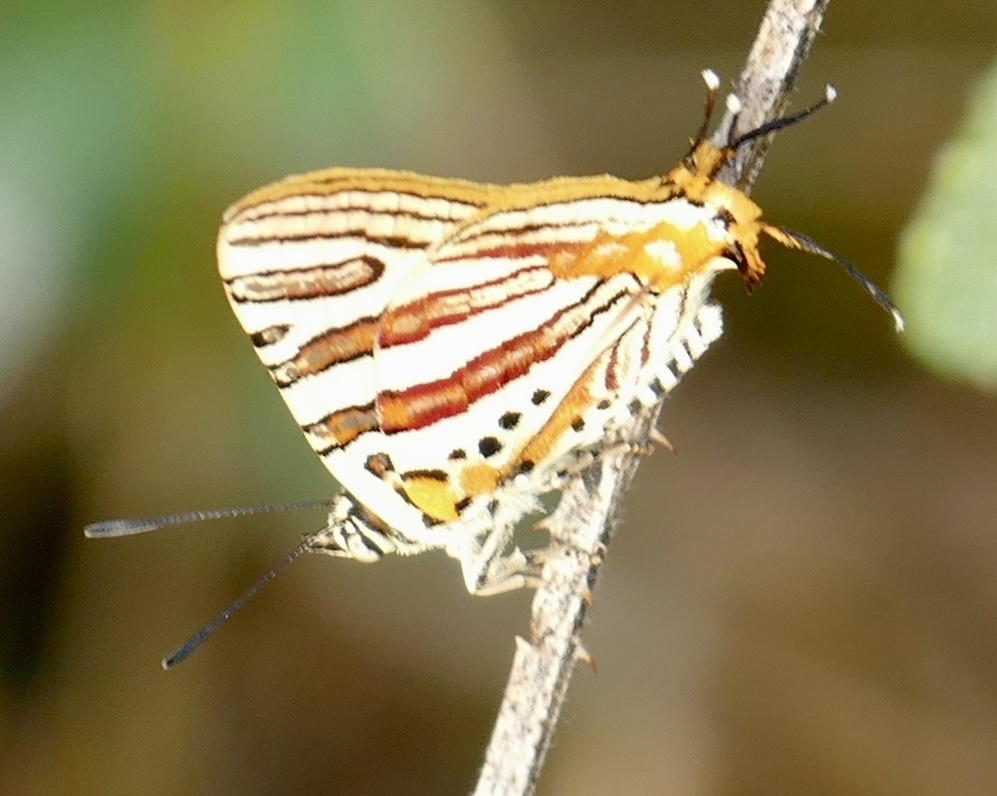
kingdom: Animalia
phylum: Arthropoda
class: Insecta
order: Lepidoptera
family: Lycaenidae
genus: Cigaritis
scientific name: Cigaritis larseni
